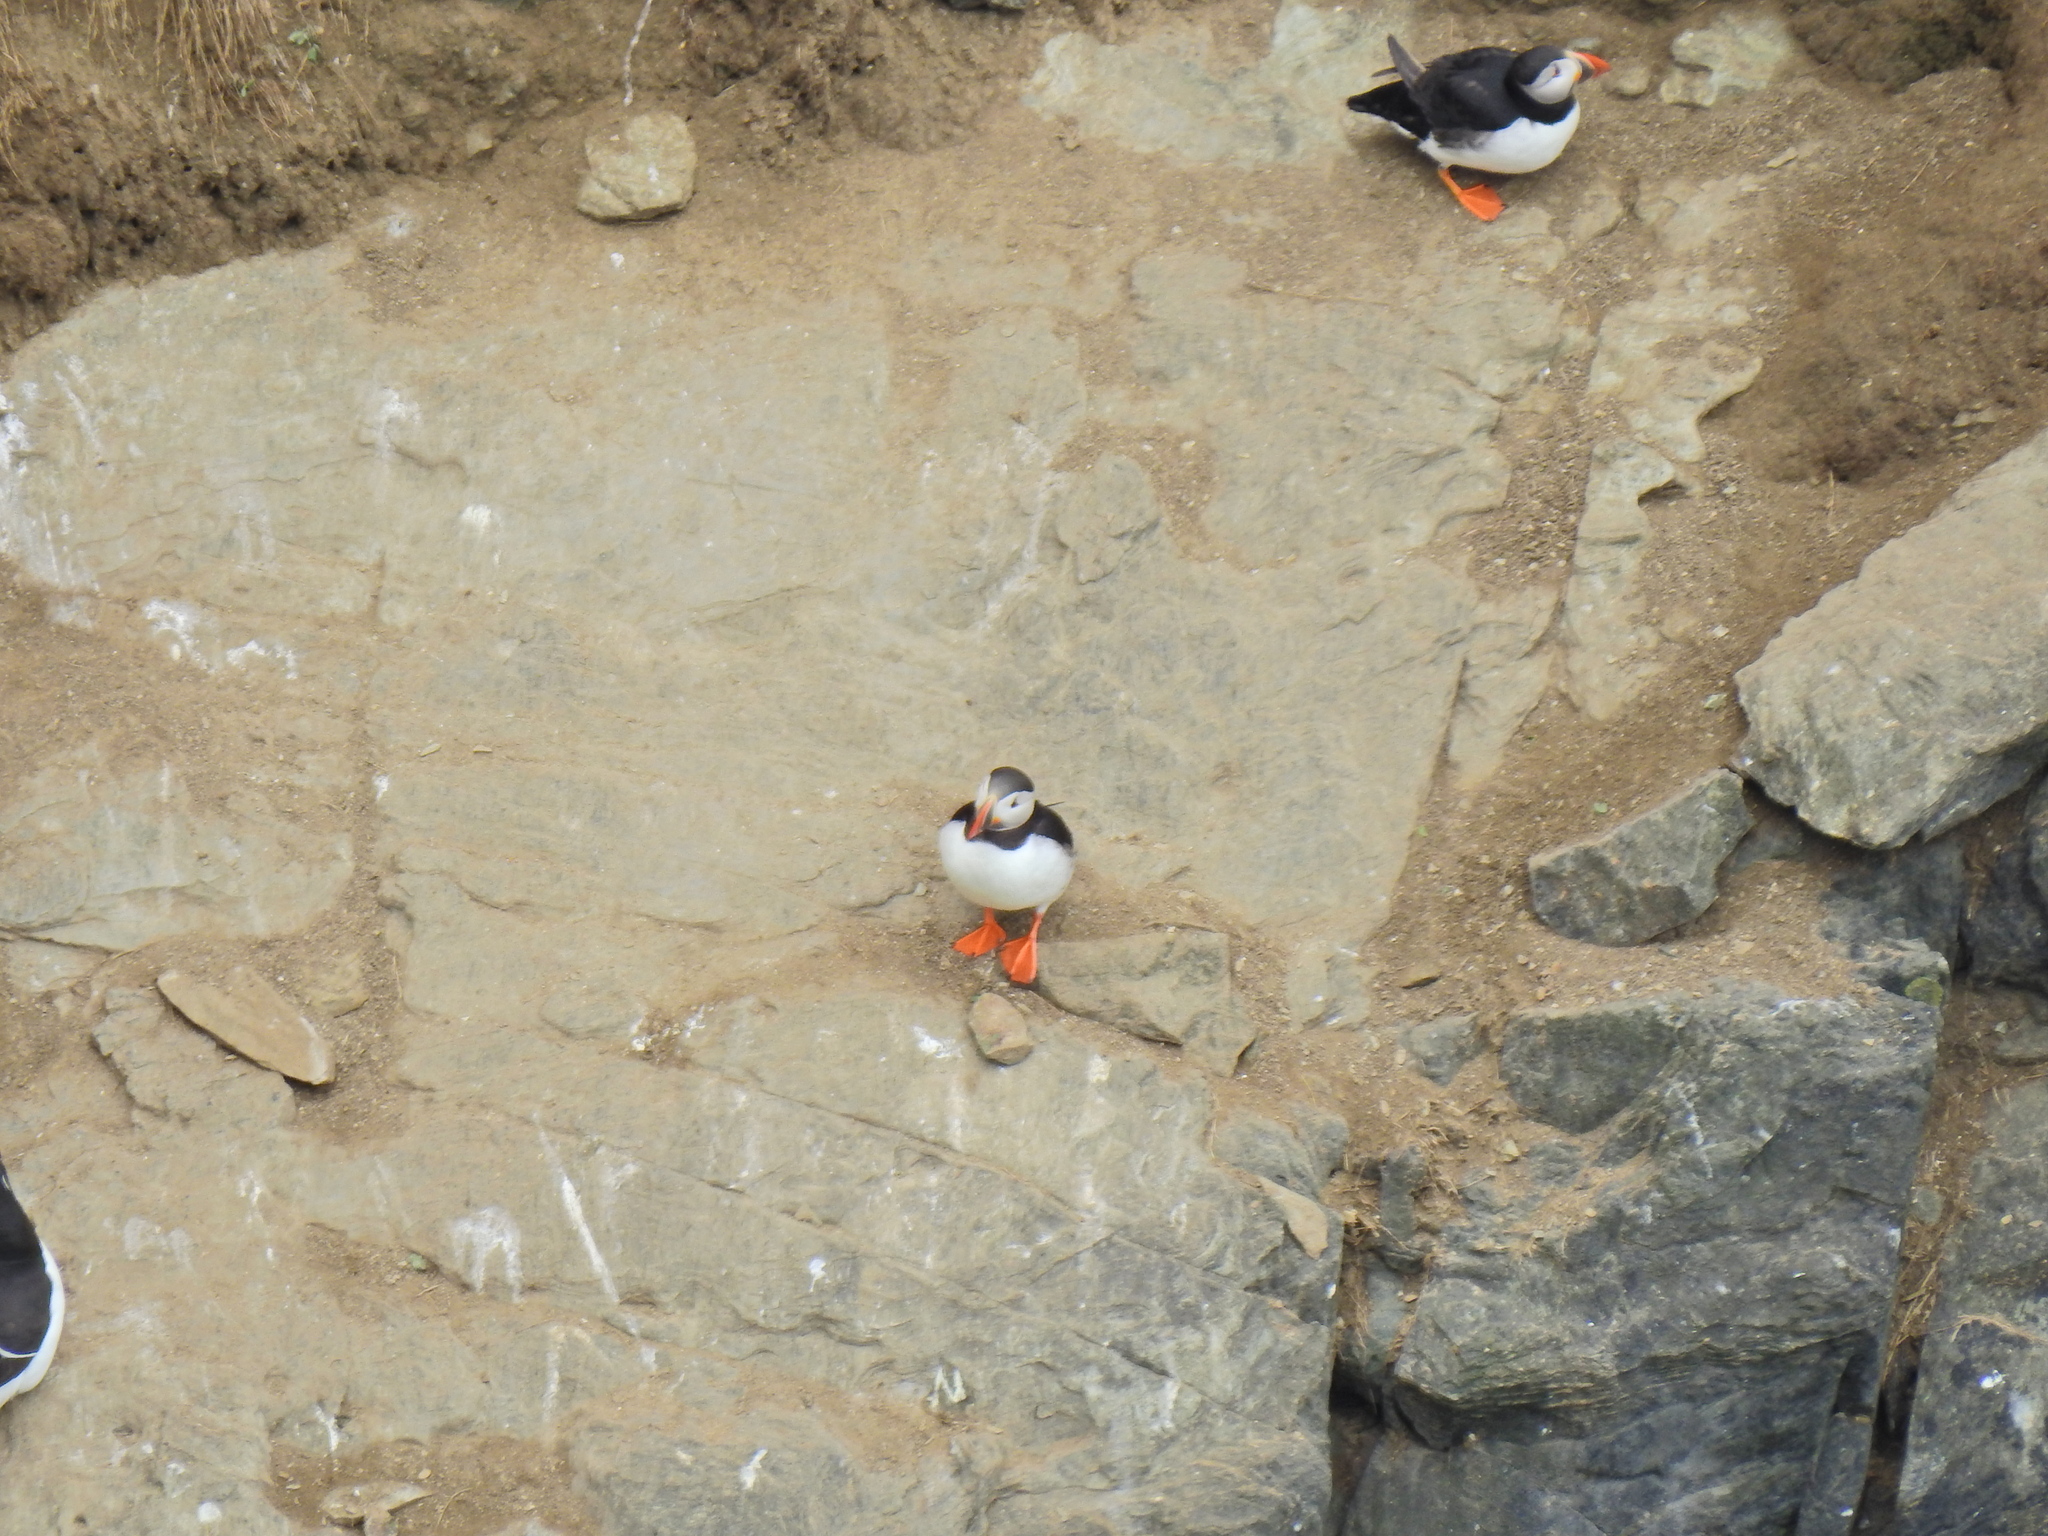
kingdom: Animalia
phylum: Chordata
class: Aves
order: Charadriiformes
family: Alcidae
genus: Fratercula
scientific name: Fratercula arctica
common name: Atlantic puffin
